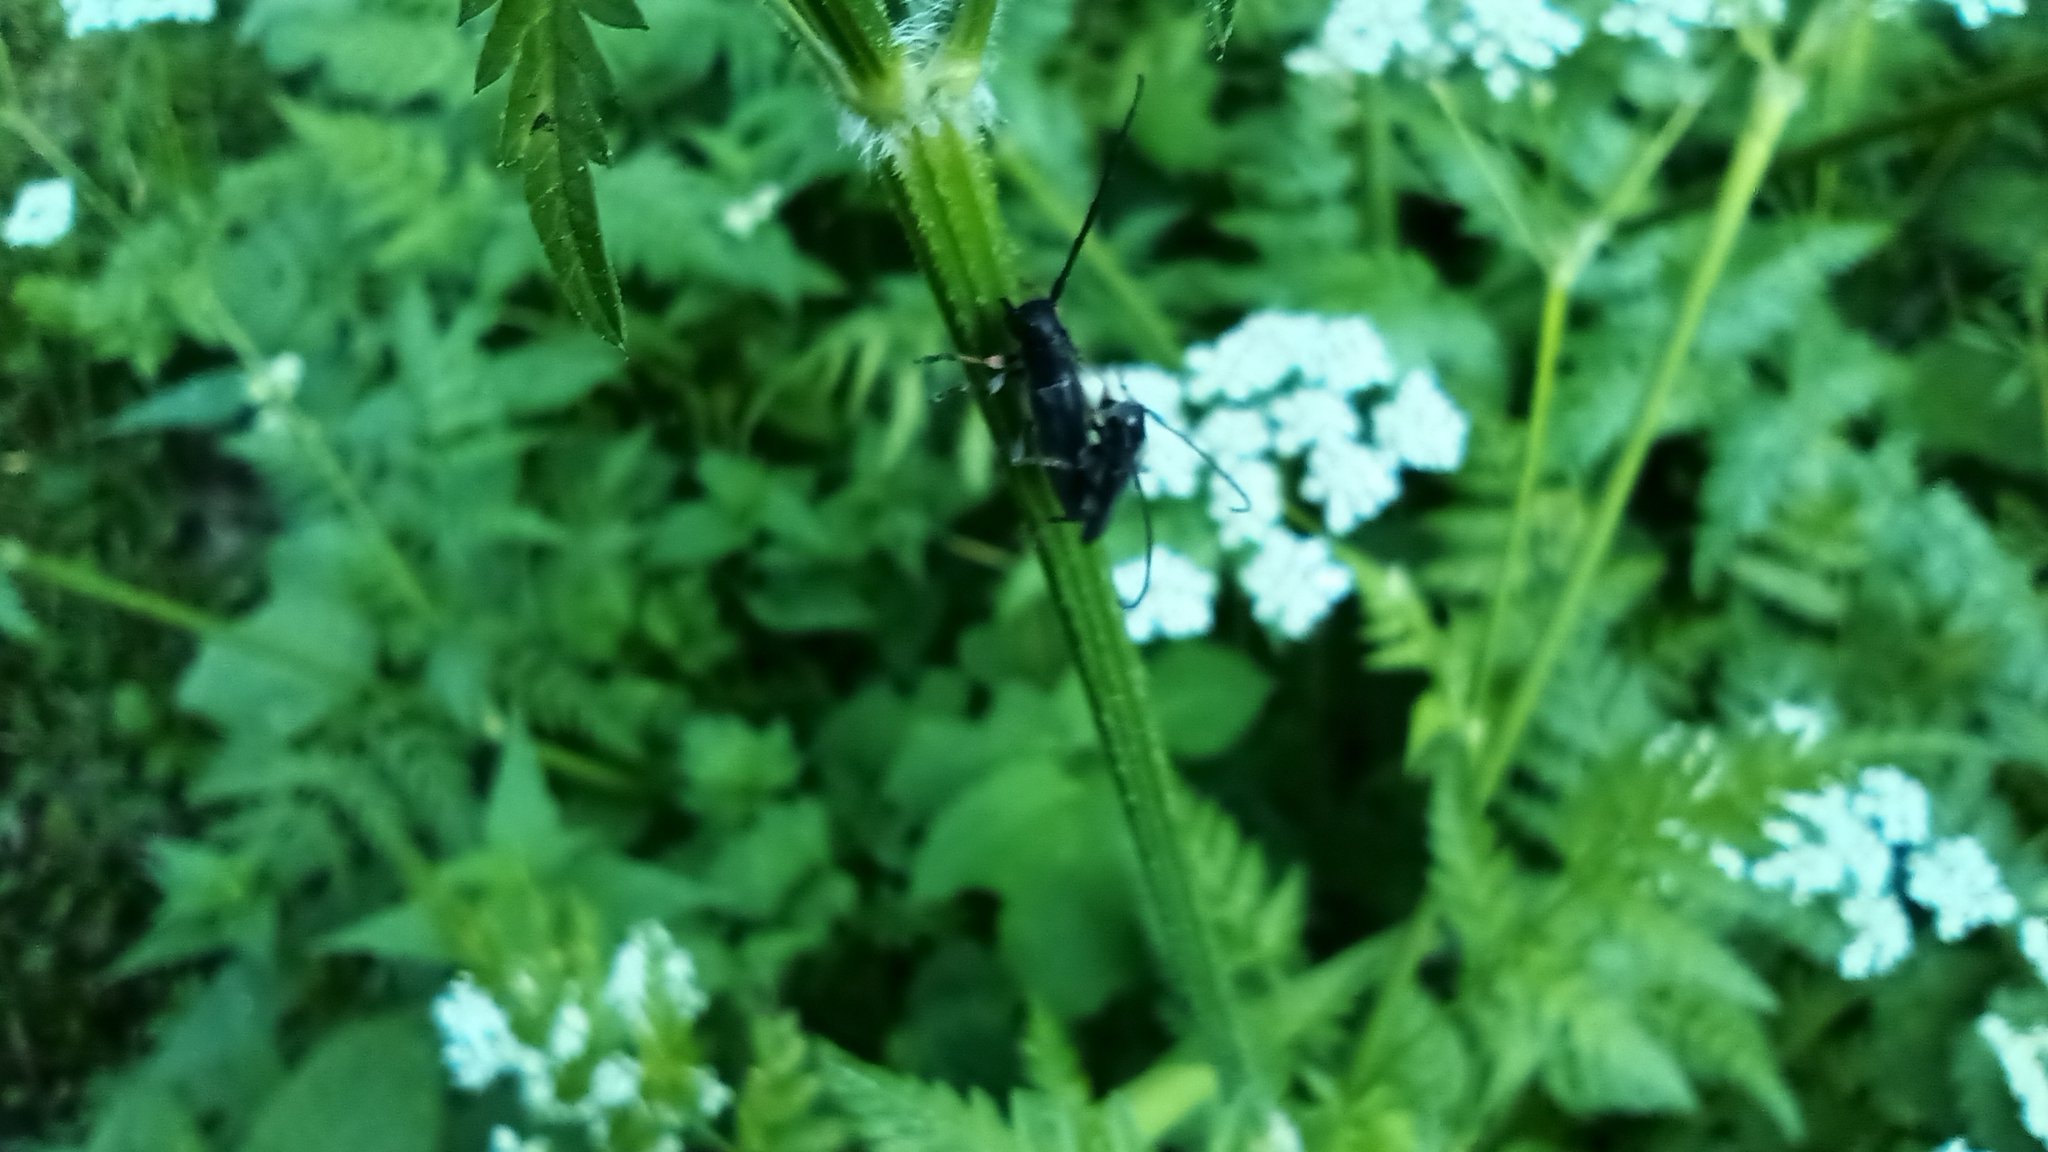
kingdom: Animalia
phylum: Arthropoda
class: Insecta
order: Coleoptera
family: Cerambycidae
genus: Phytoecia
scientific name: Phytoecia cylindrica
